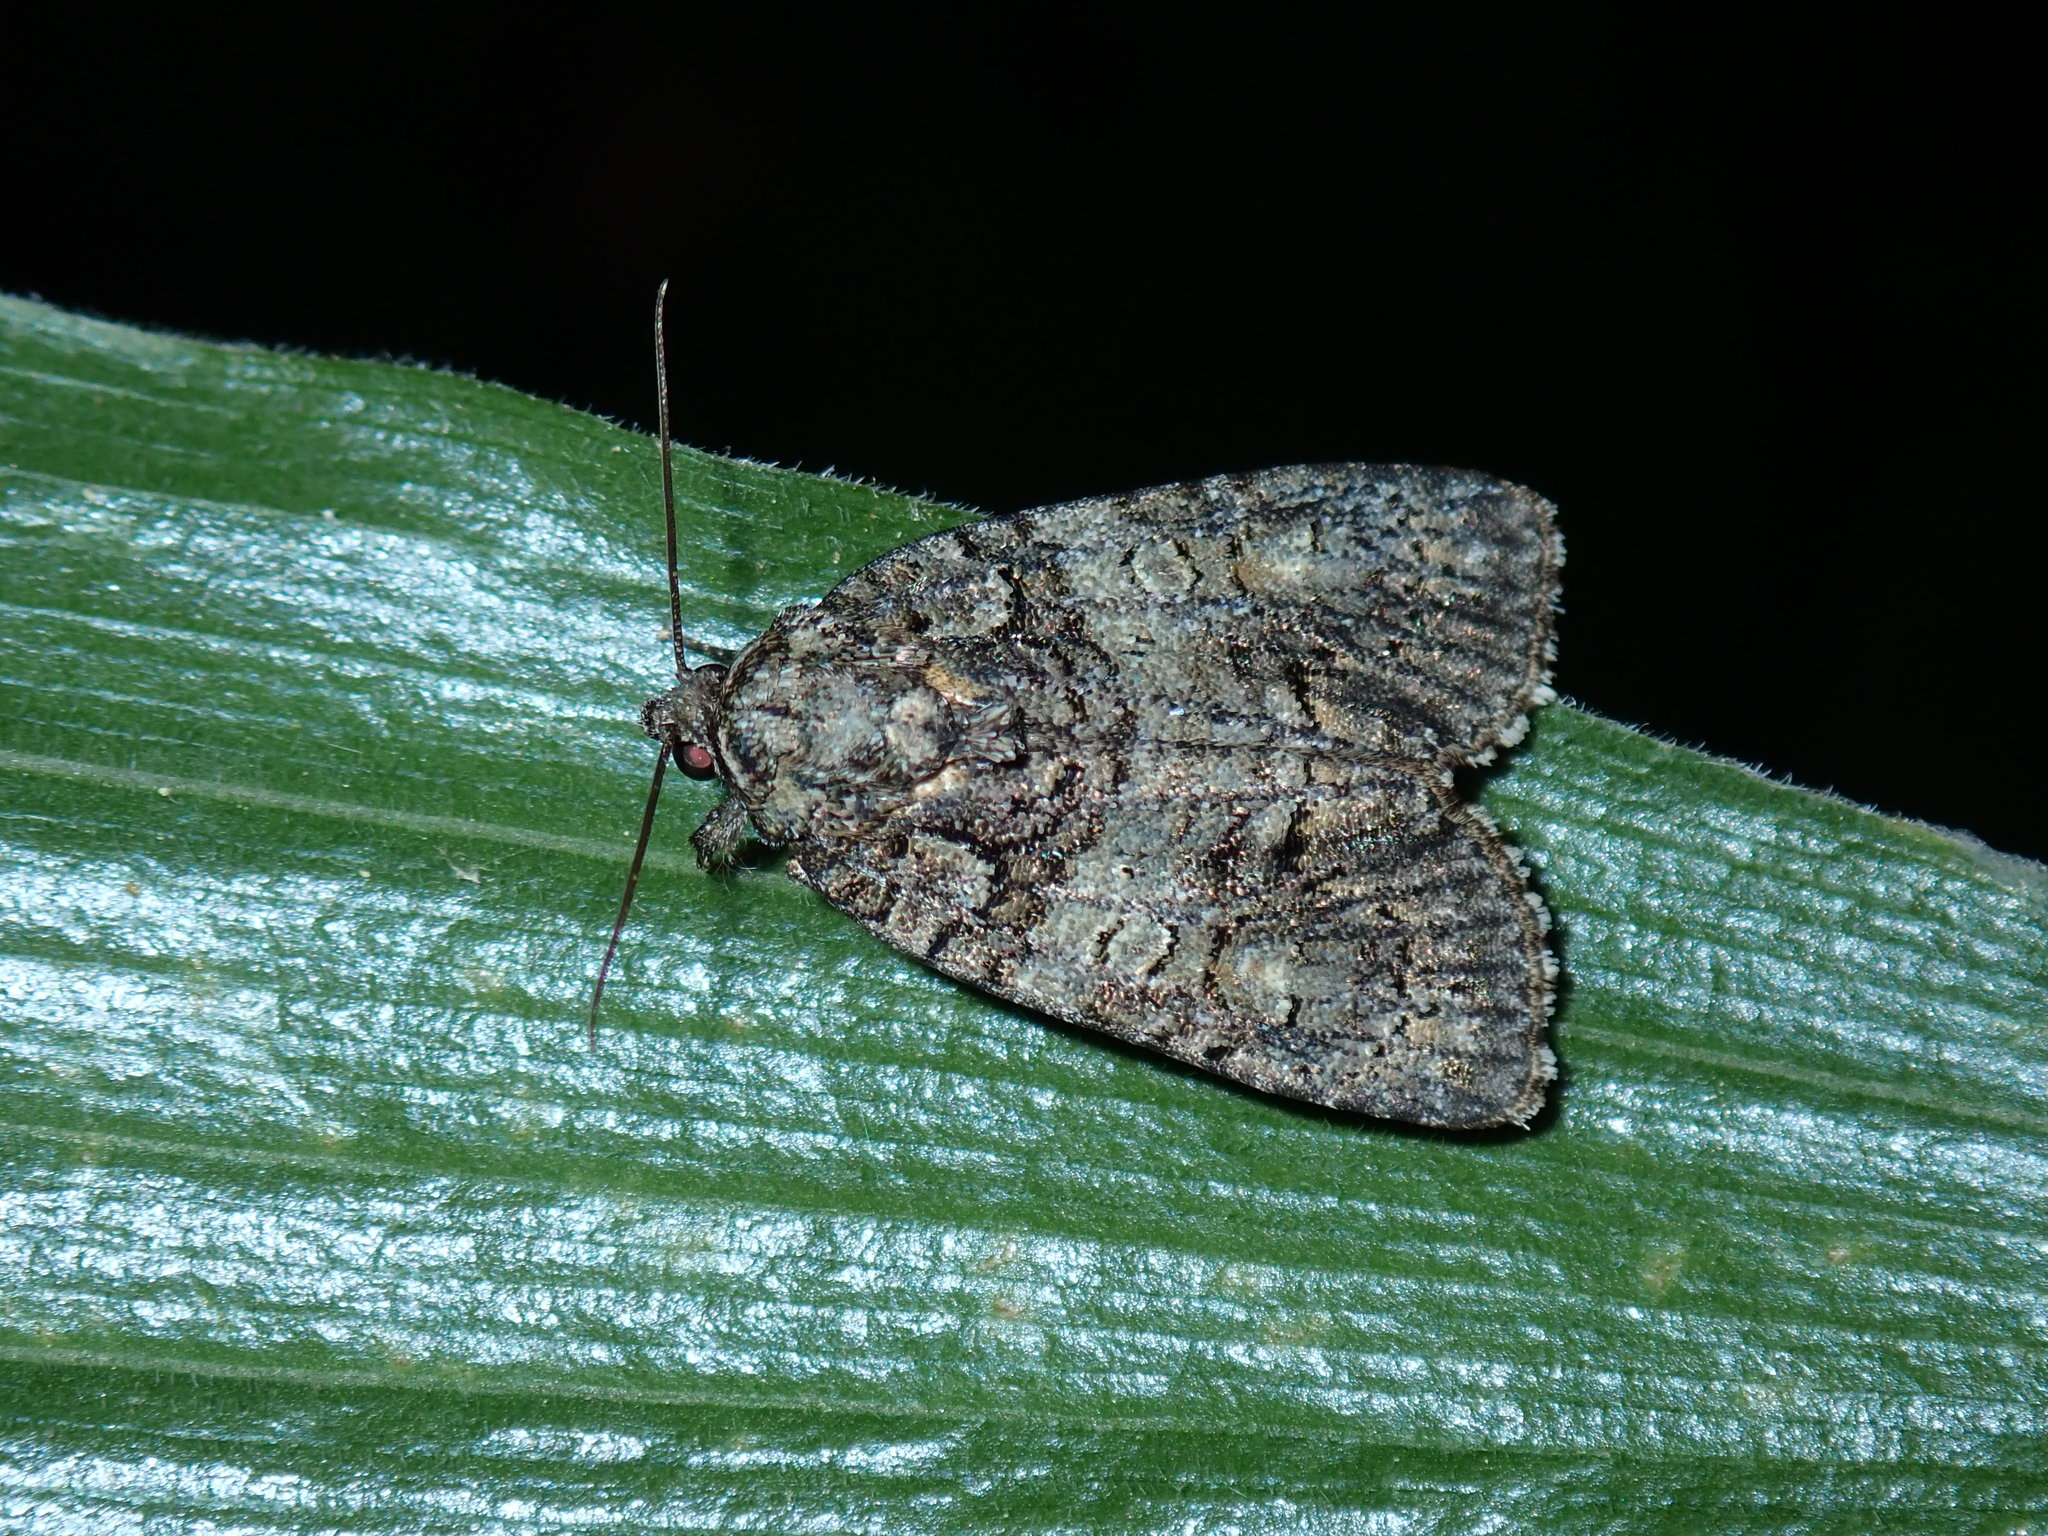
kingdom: Animalia
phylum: Arthropoda
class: Insecta
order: Lepidoptera
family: Noctuidae
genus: Acronicta
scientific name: Acronicta increta
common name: Eclipsed oak dagger
